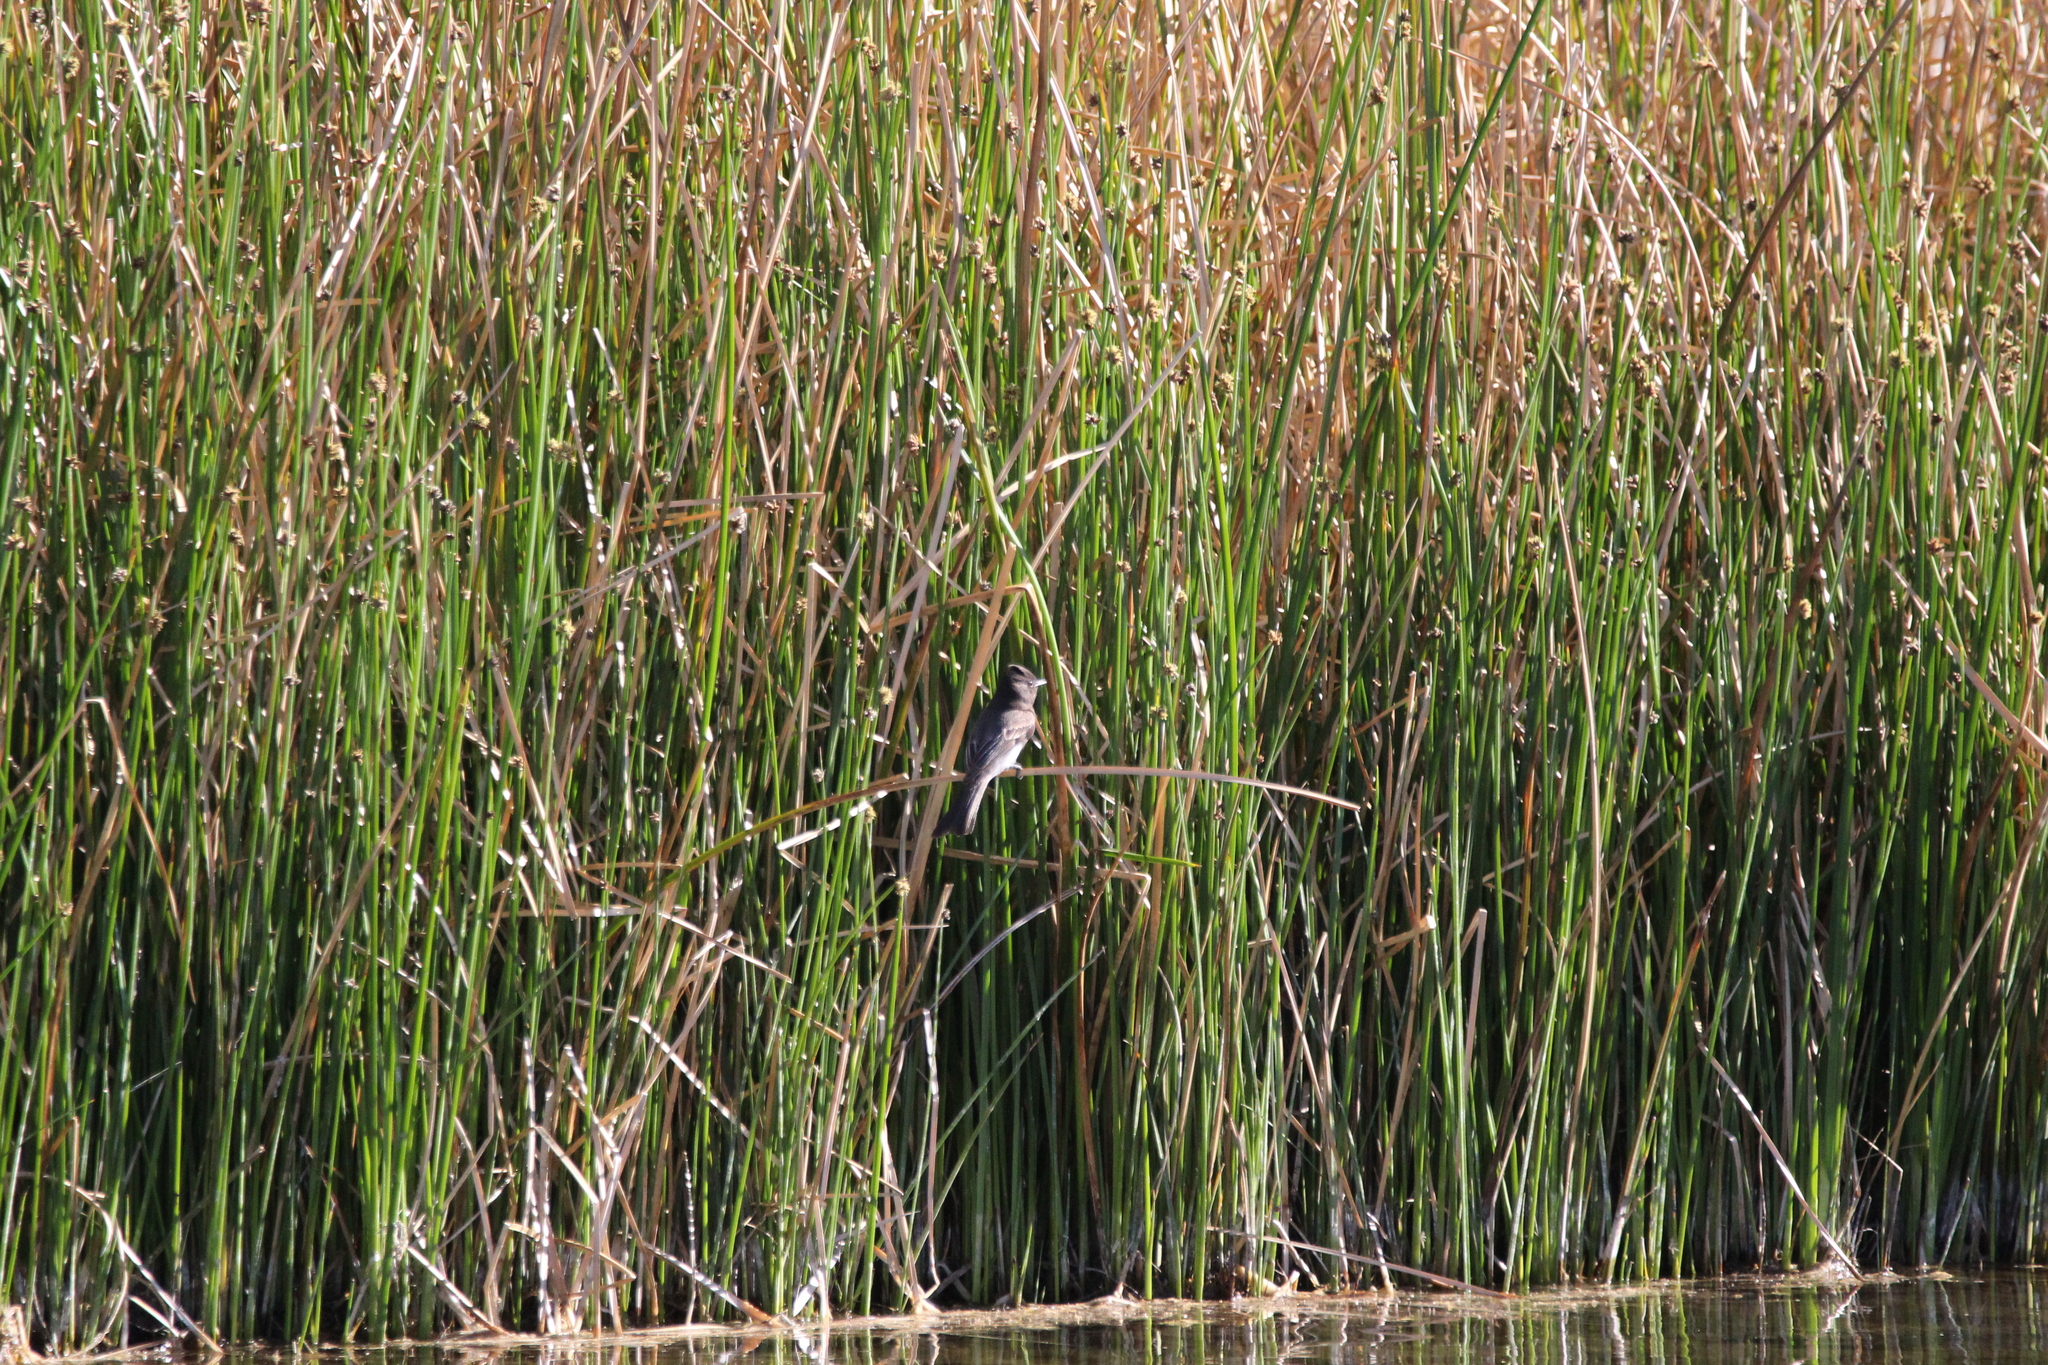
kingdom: Animalia
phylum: Chordata
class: Aves
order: Passeriformes
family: Tyrannidae
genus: Sayornis
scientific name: Sayornis nigricans
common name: Black phoebe
